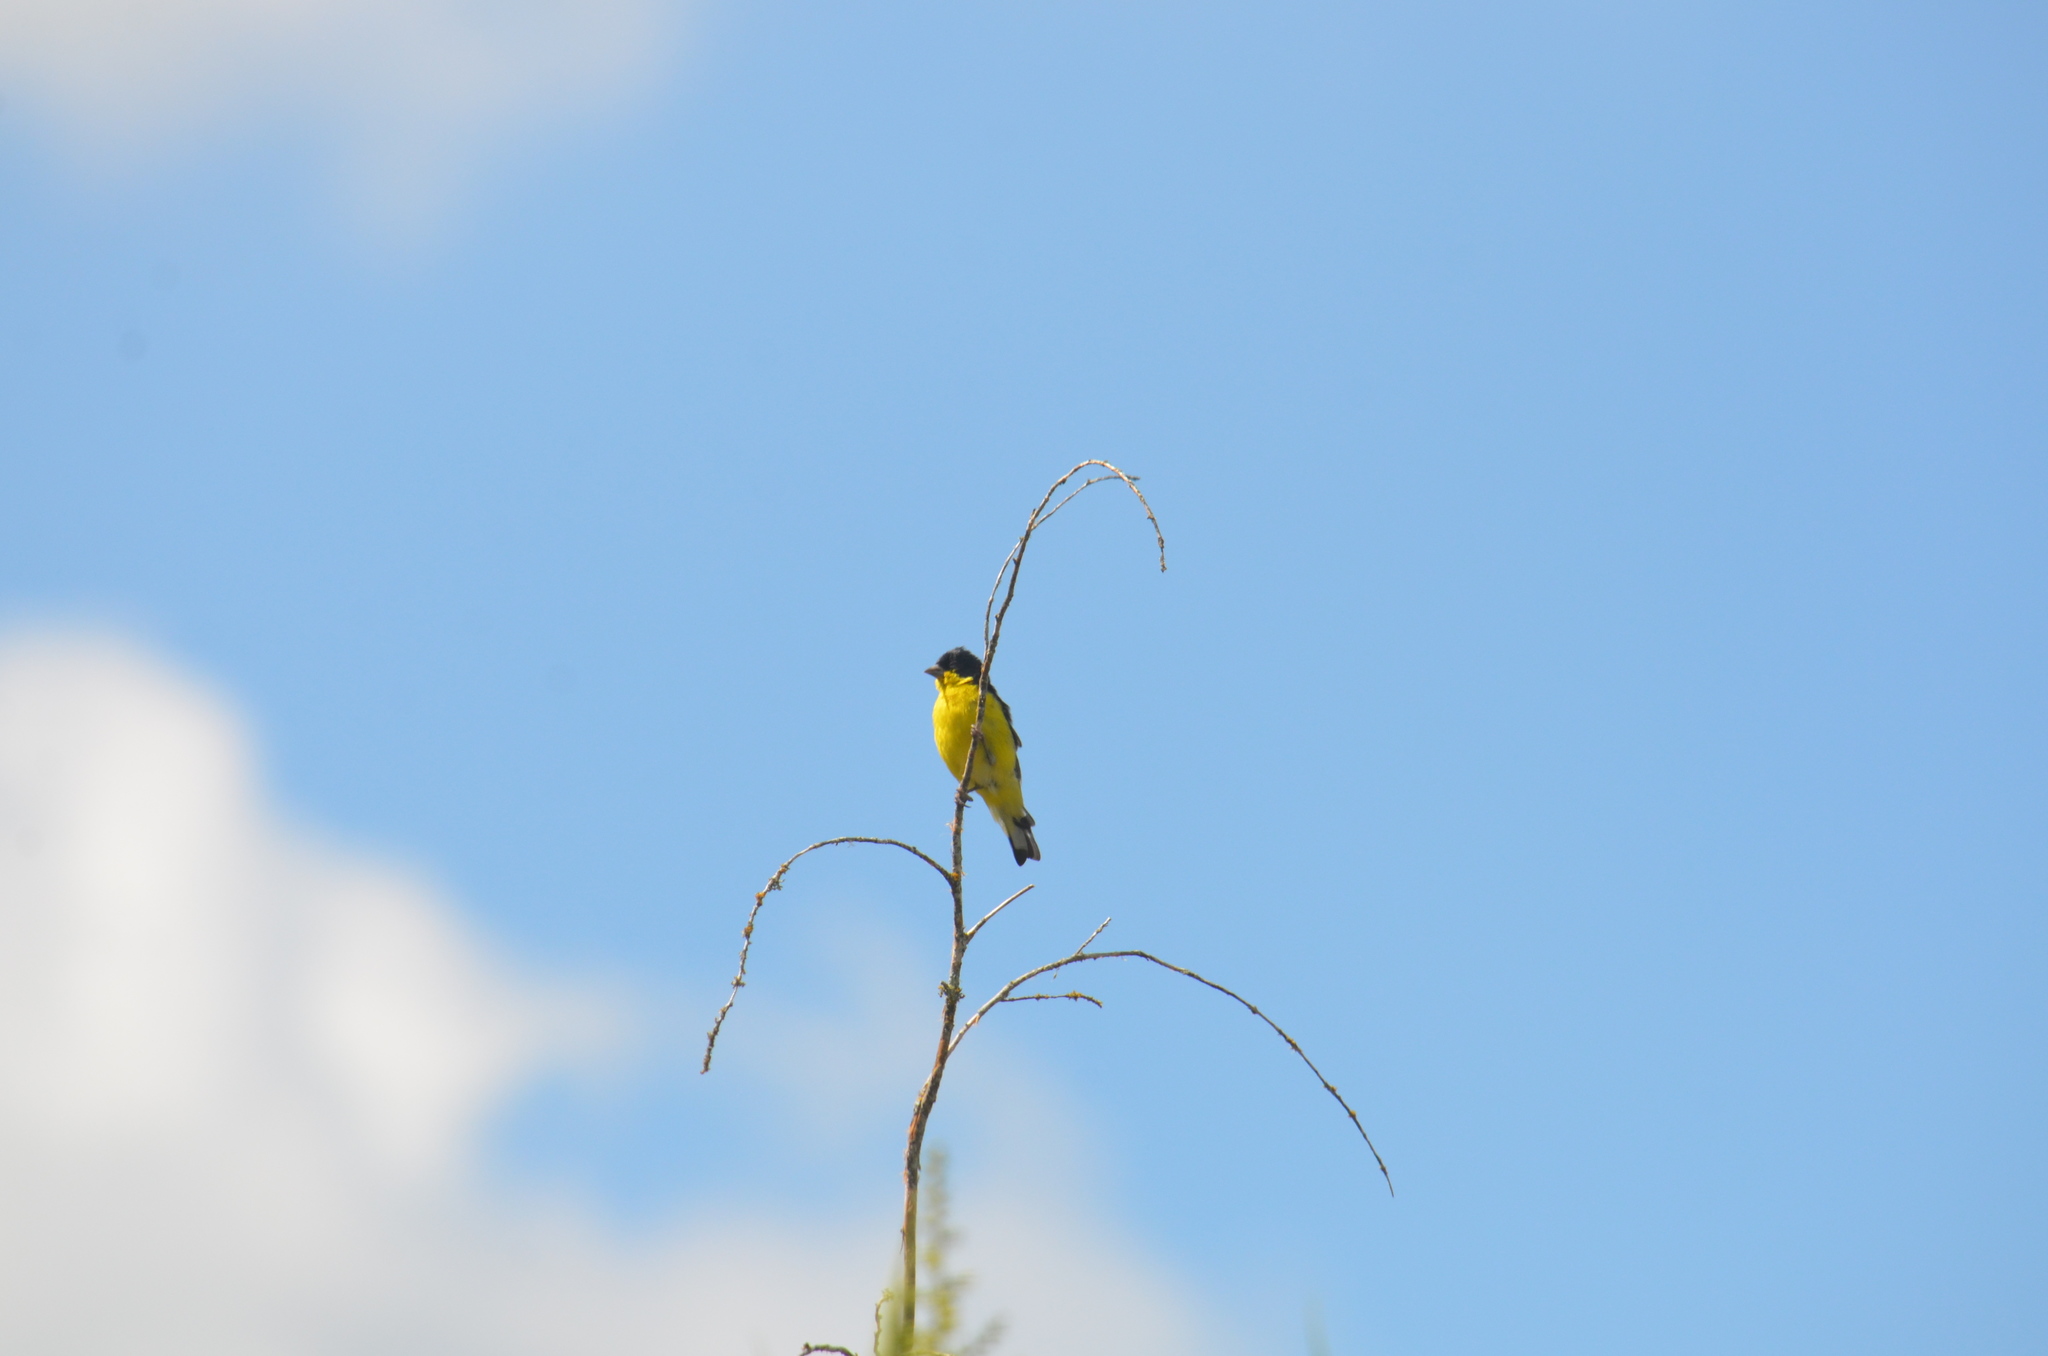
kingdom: Animalia
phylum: Chordata
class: Aves
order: Passeriformes
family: Fringillidae
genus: Spinus
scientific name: Spinus psaltria
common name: Lesser goldfinch
